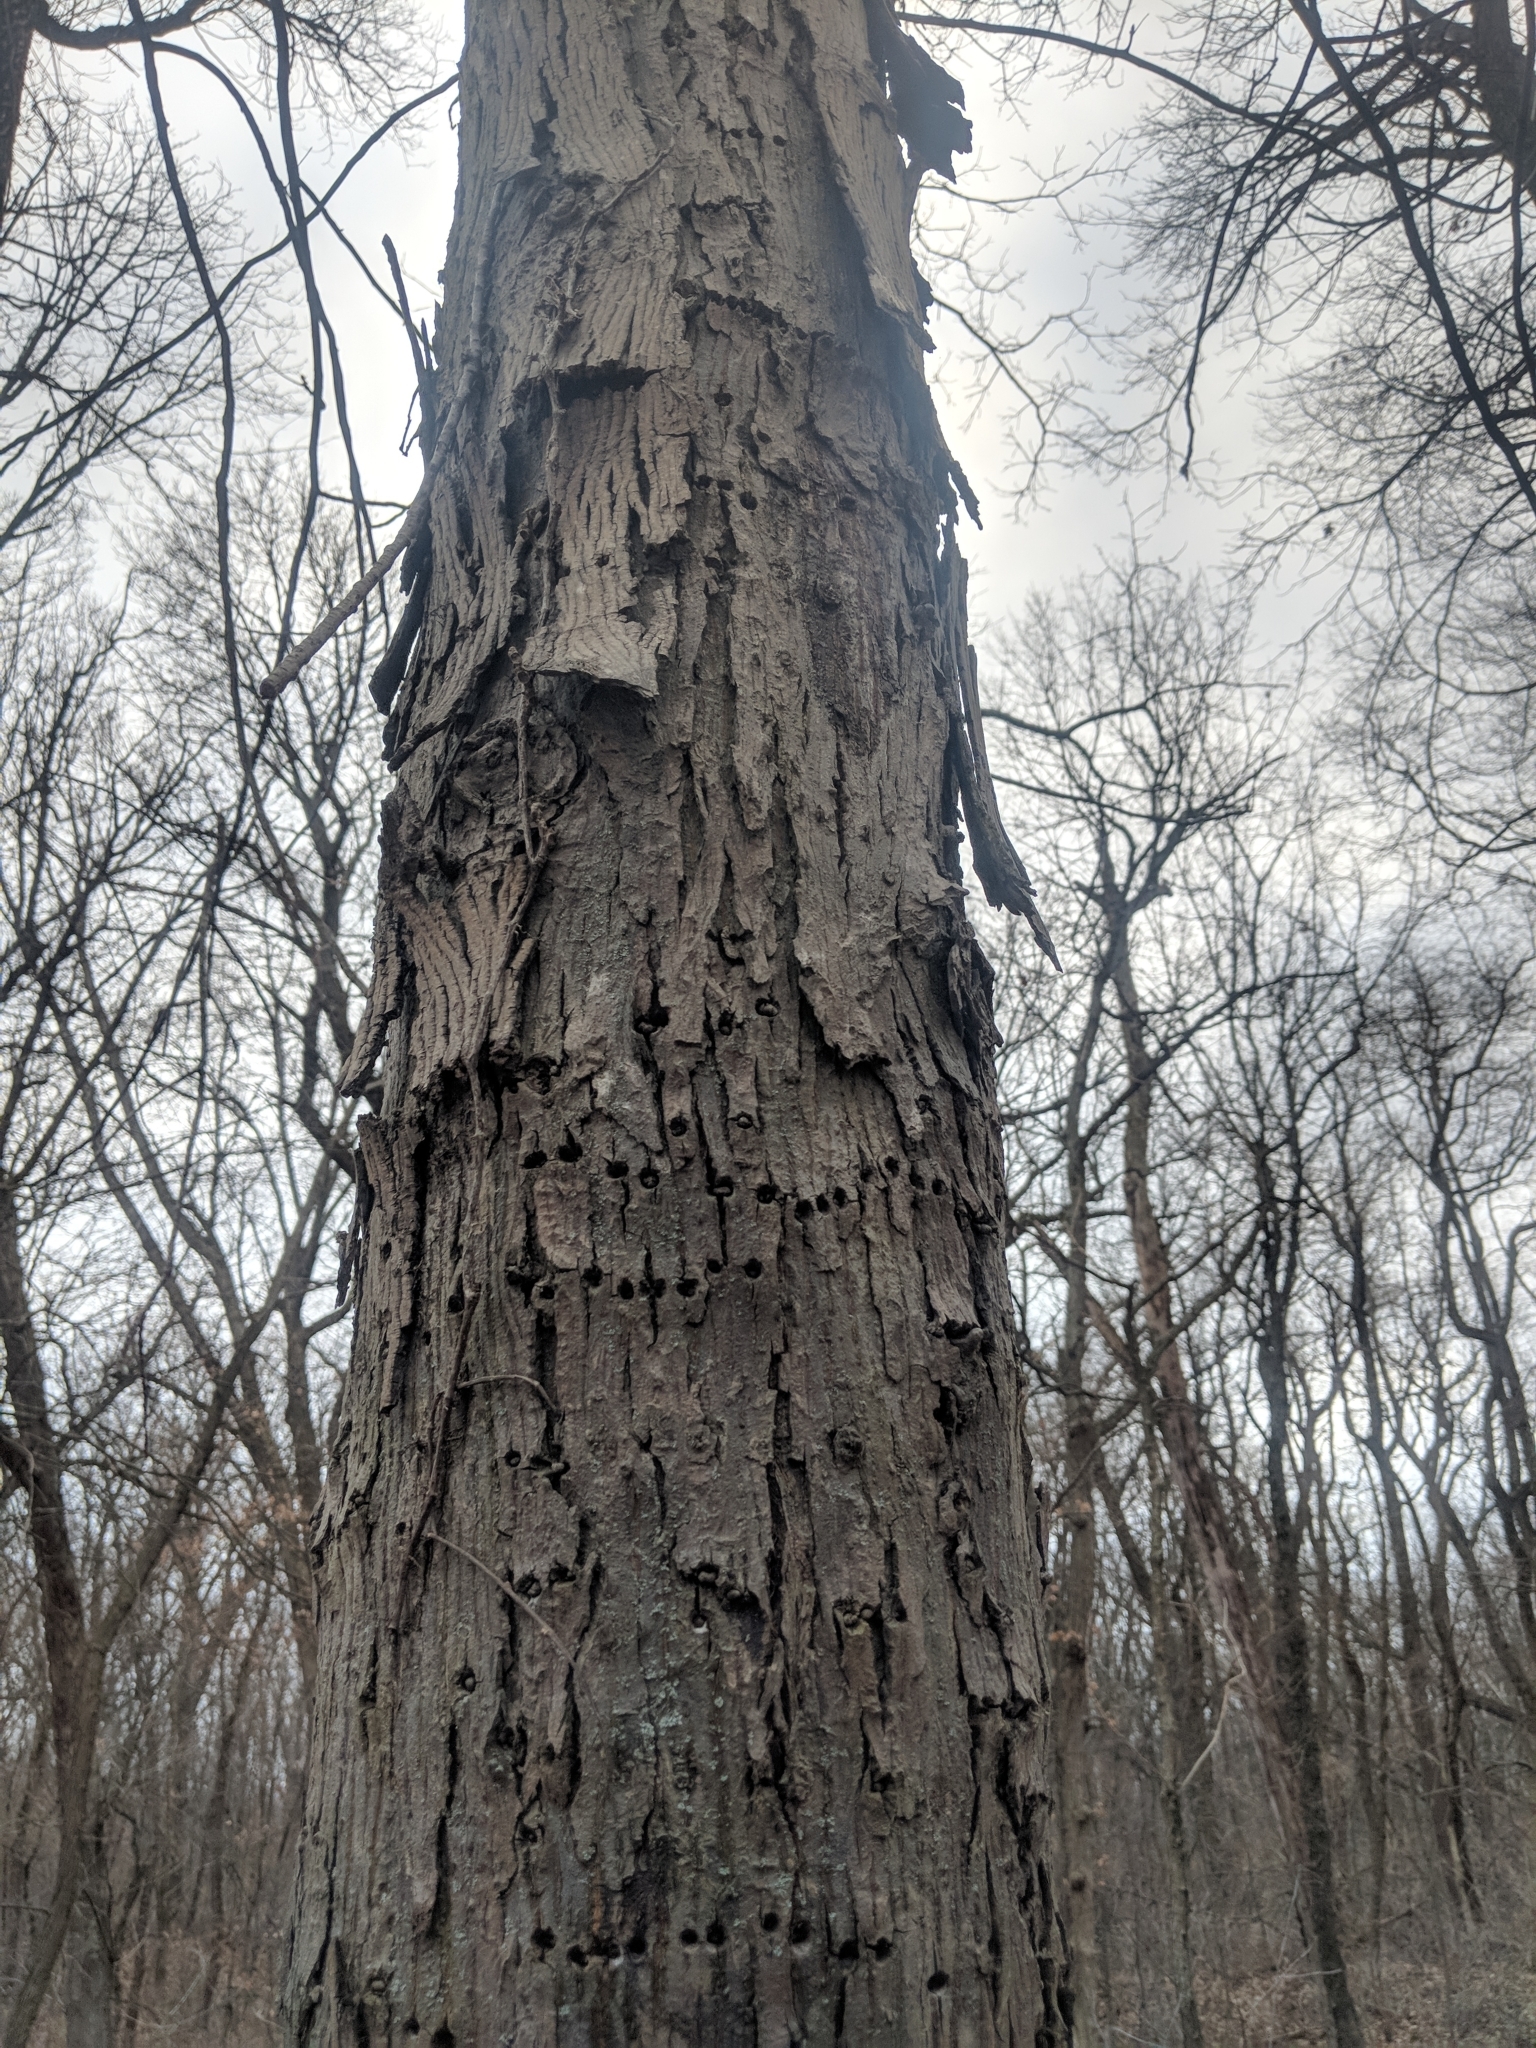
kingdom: Plantae
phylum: Tracheophyta
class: Magnoliopsida
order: Fagales
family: Juglandaceae
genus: Carya
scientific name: Carya ovata
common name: Shagbark hickory
